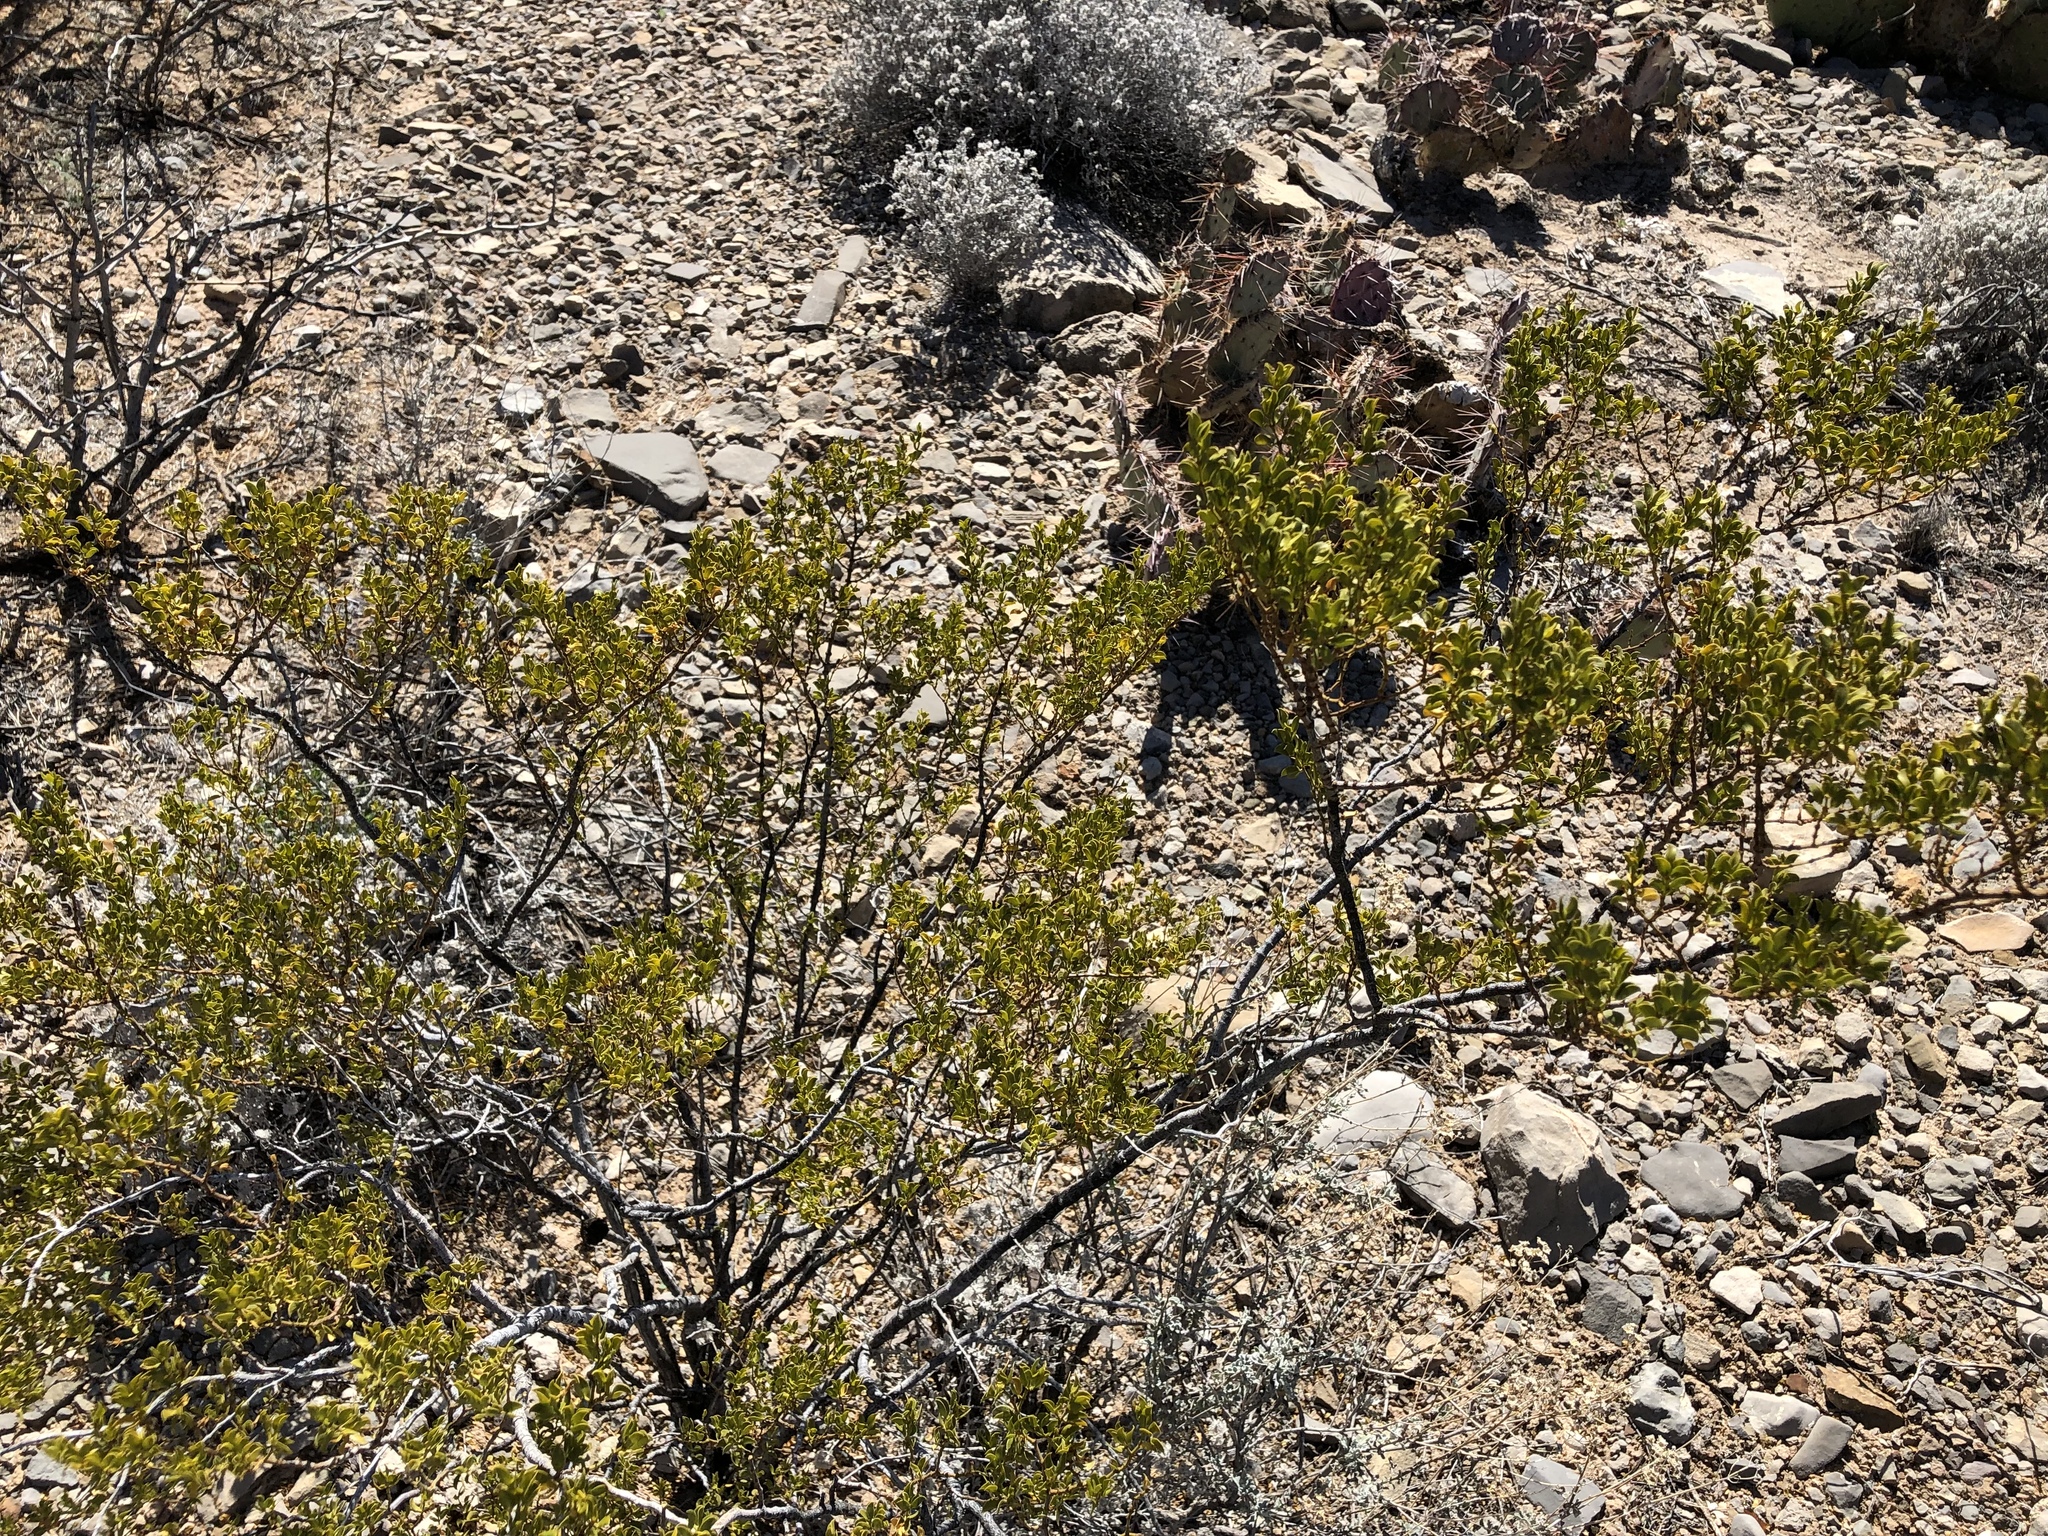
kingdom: Plantae
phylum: Tracheophyta
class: Magnoliopsida
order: Zygophyllales
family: Zygophyllaceae
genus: Larrea
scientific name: Larrea tridentata
